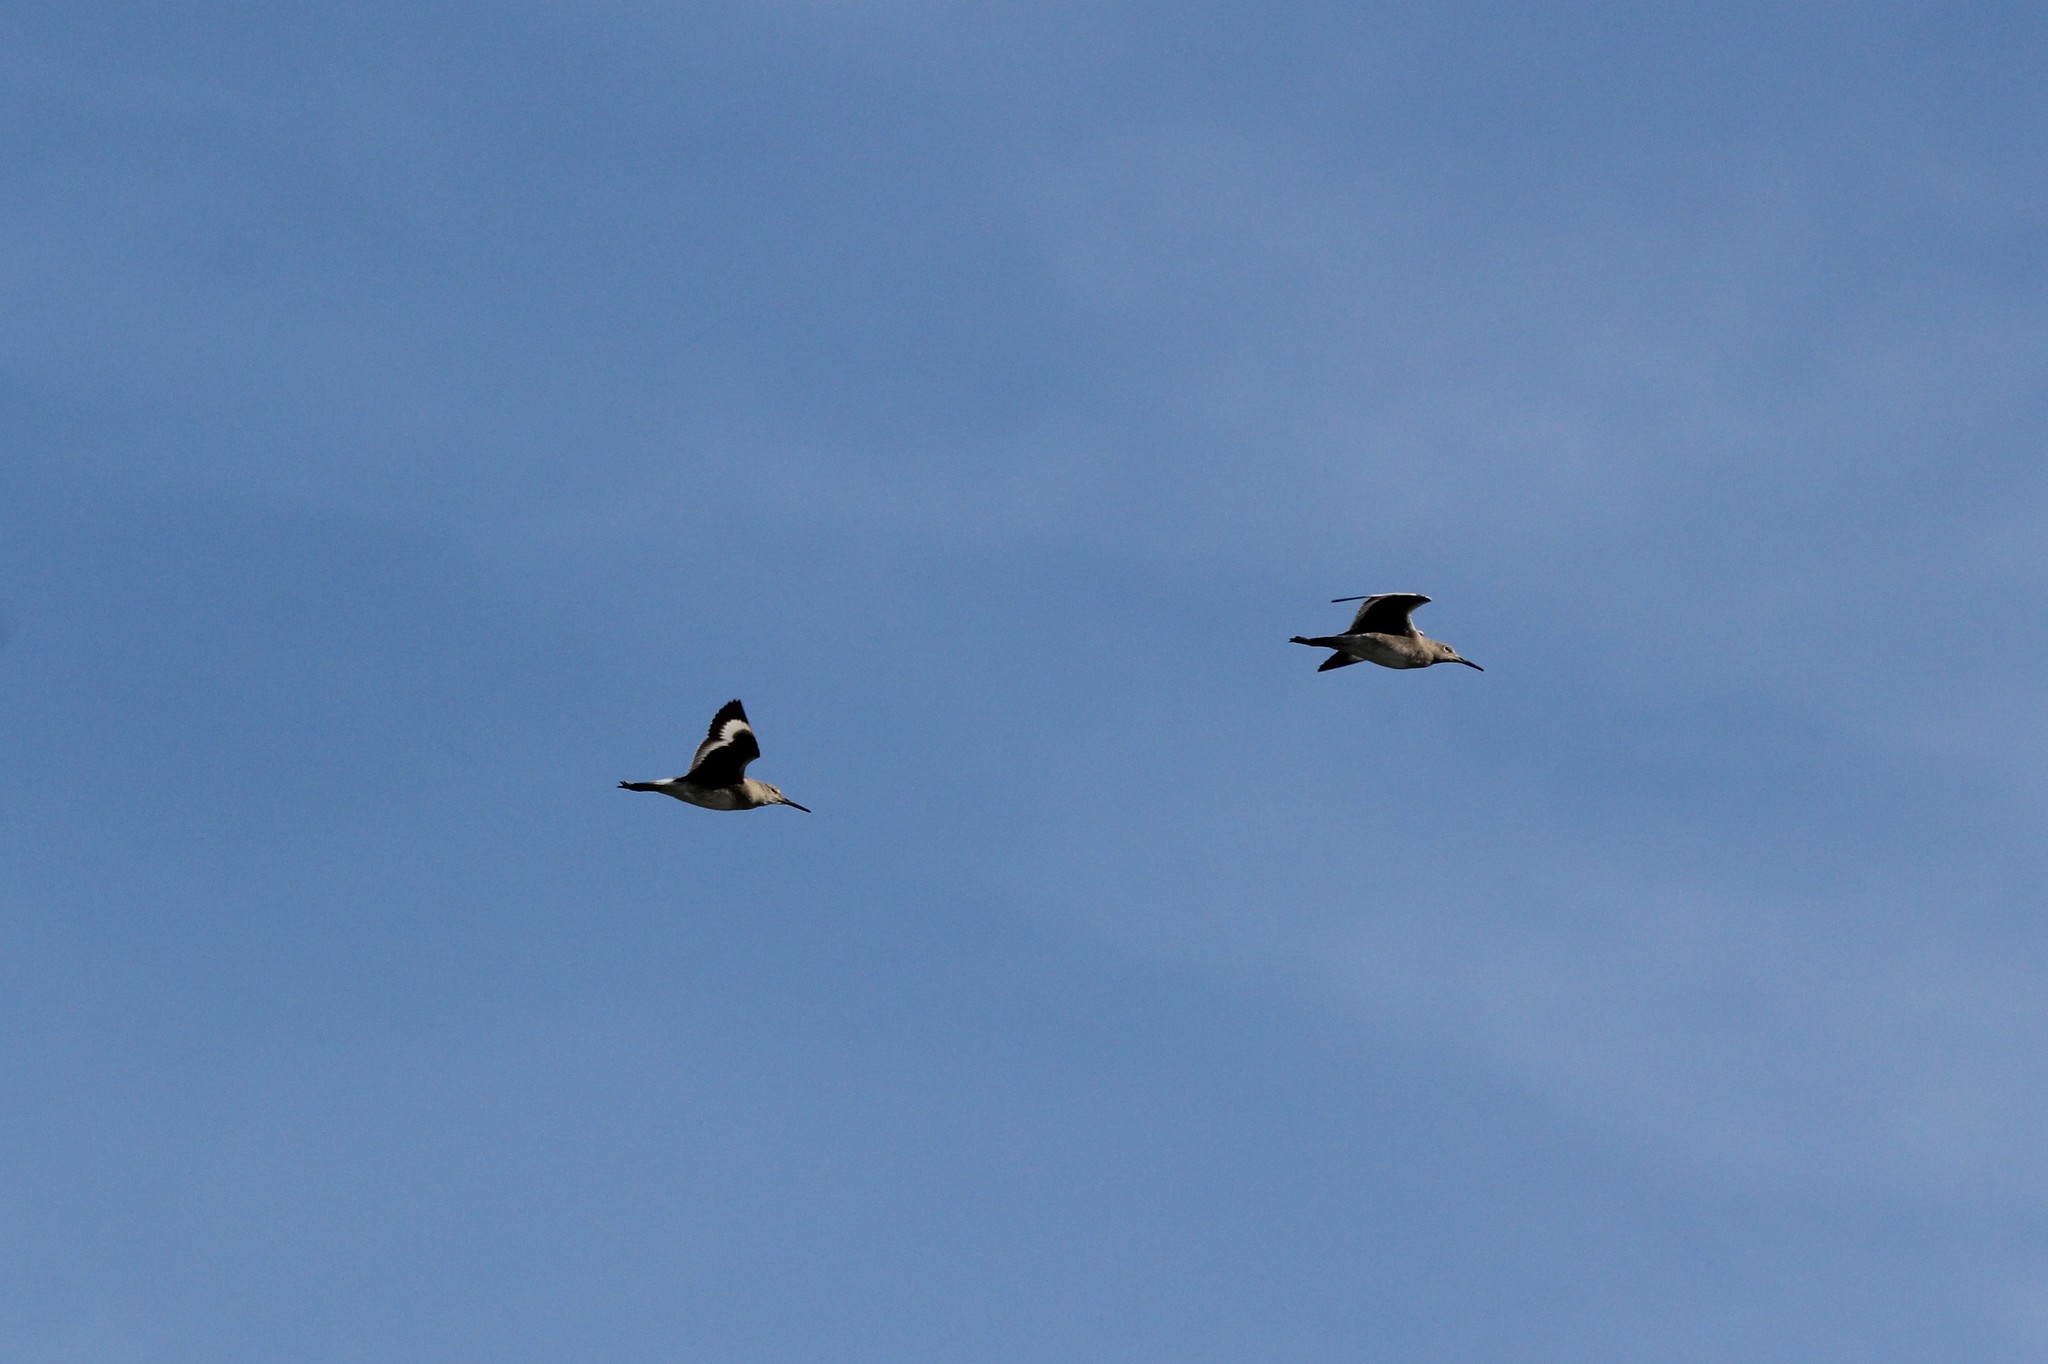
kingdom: Animalia
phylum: Chordata
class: Aves
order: Charadriiformes
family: Scolopacidae
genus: Tringa
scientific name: Tringa semipalmata
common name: Willet
